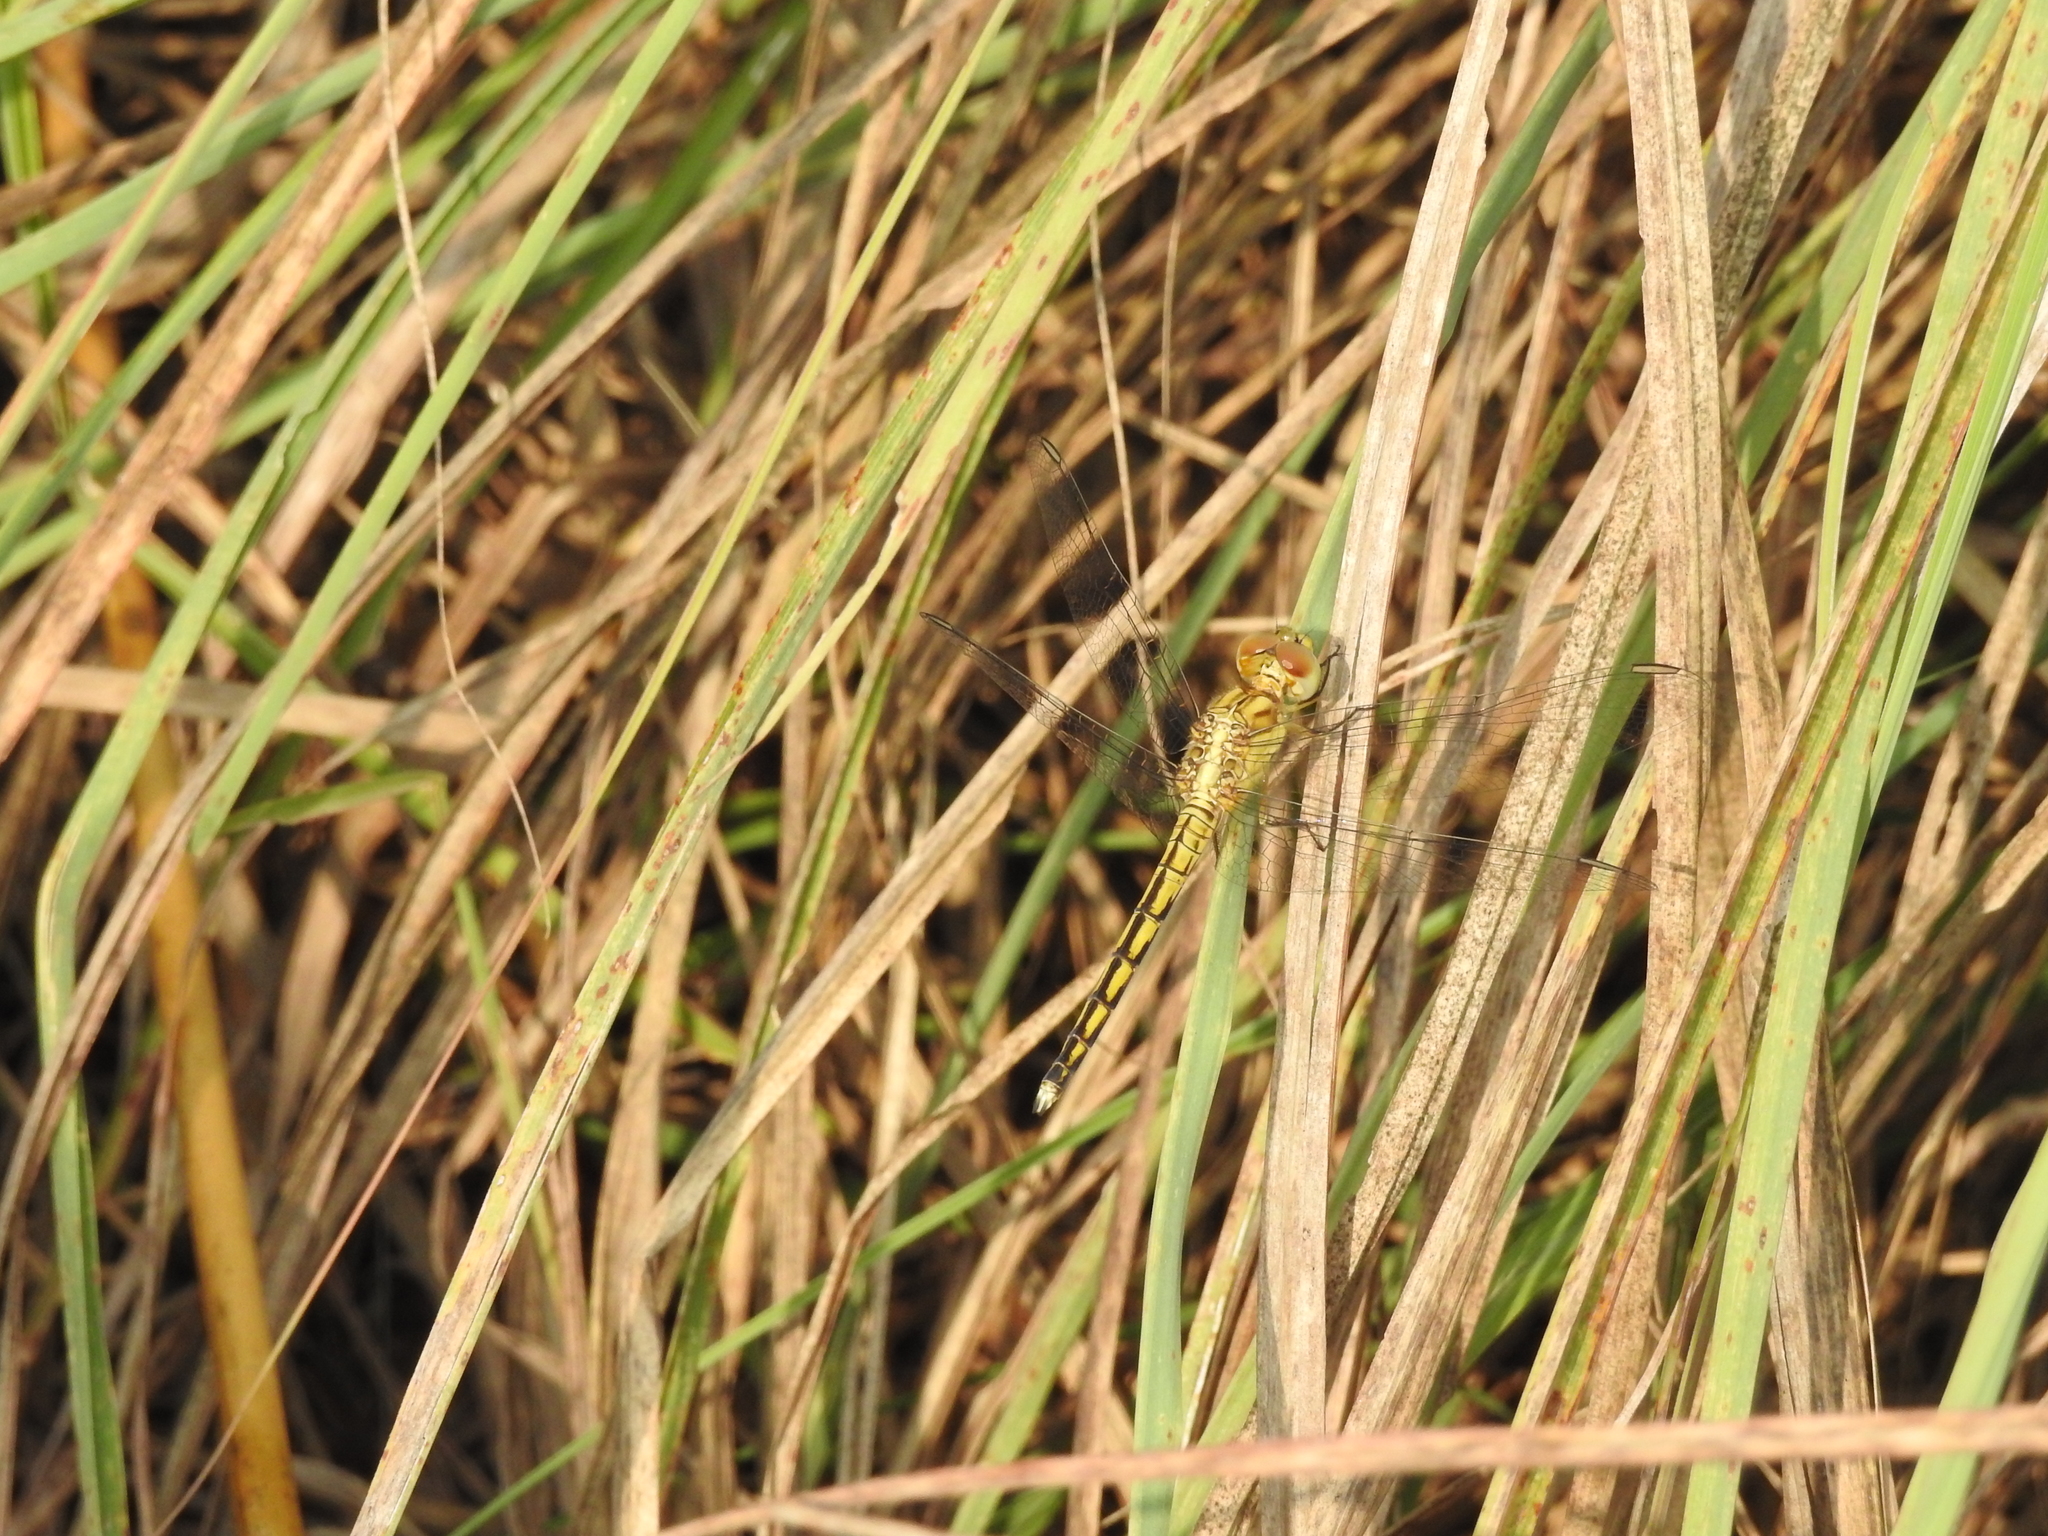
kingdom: Animalia
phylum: Arthropoda
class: Insecta
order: Odonata
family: Libellulidae
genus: Indothemis
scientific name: Indothemis carnatica
